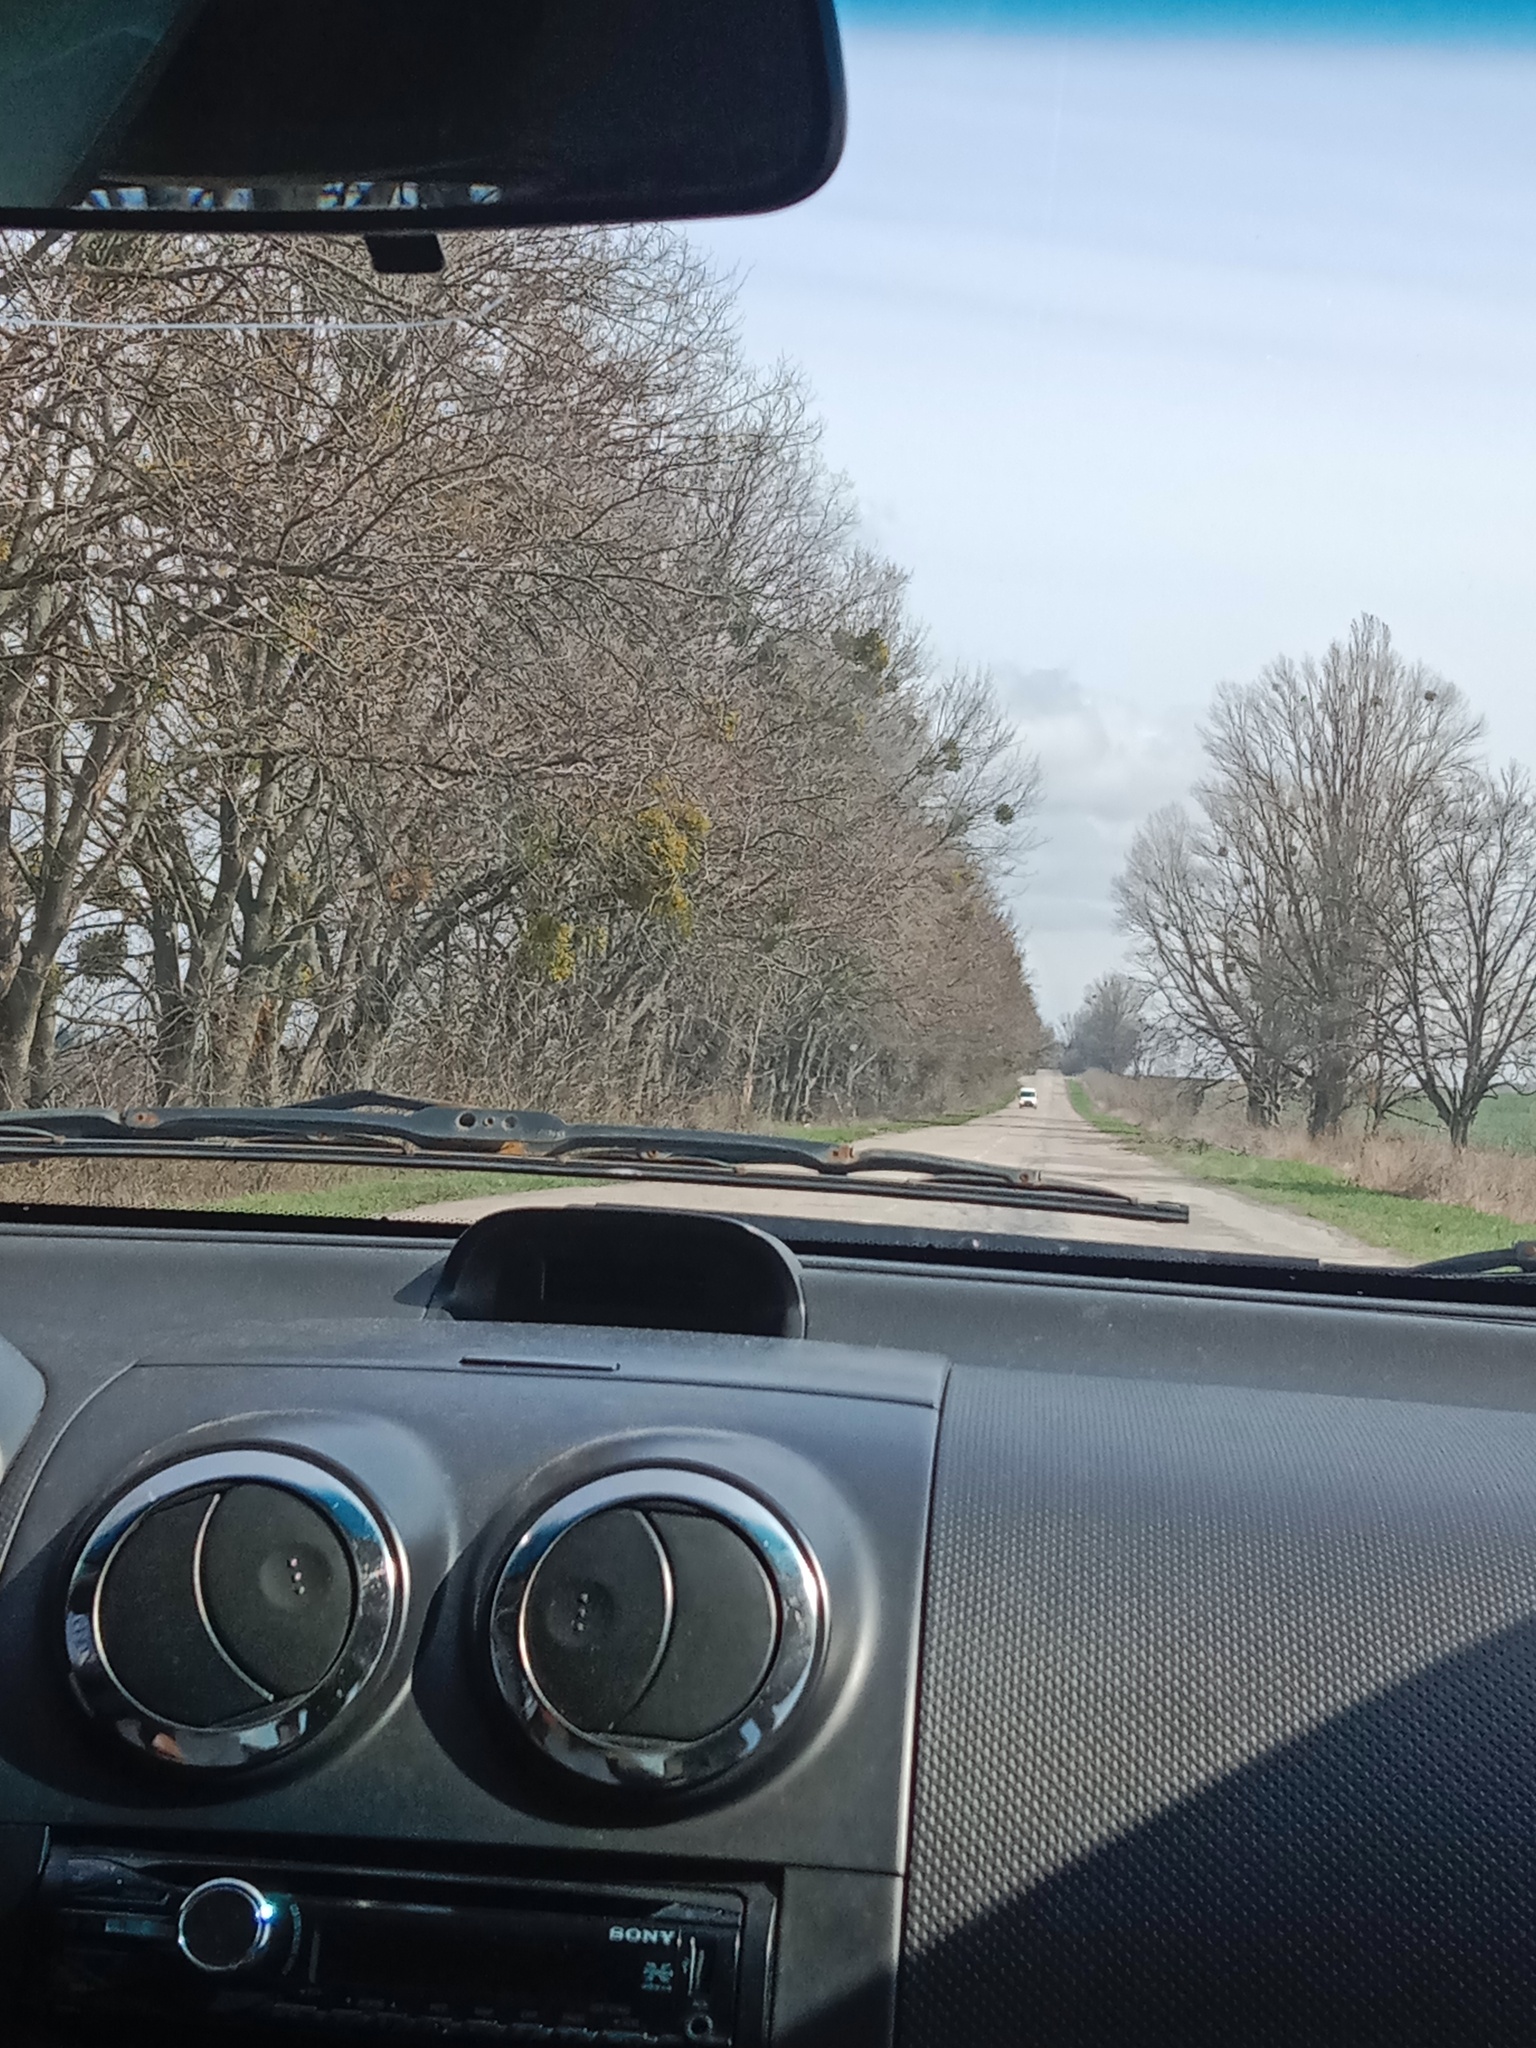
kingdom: Plantae
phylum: Tracheophyta
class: Magnoliopsida
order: Santalales
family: Viscaceae
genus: Viscum
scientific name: Viscum album
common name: Mistletoe
